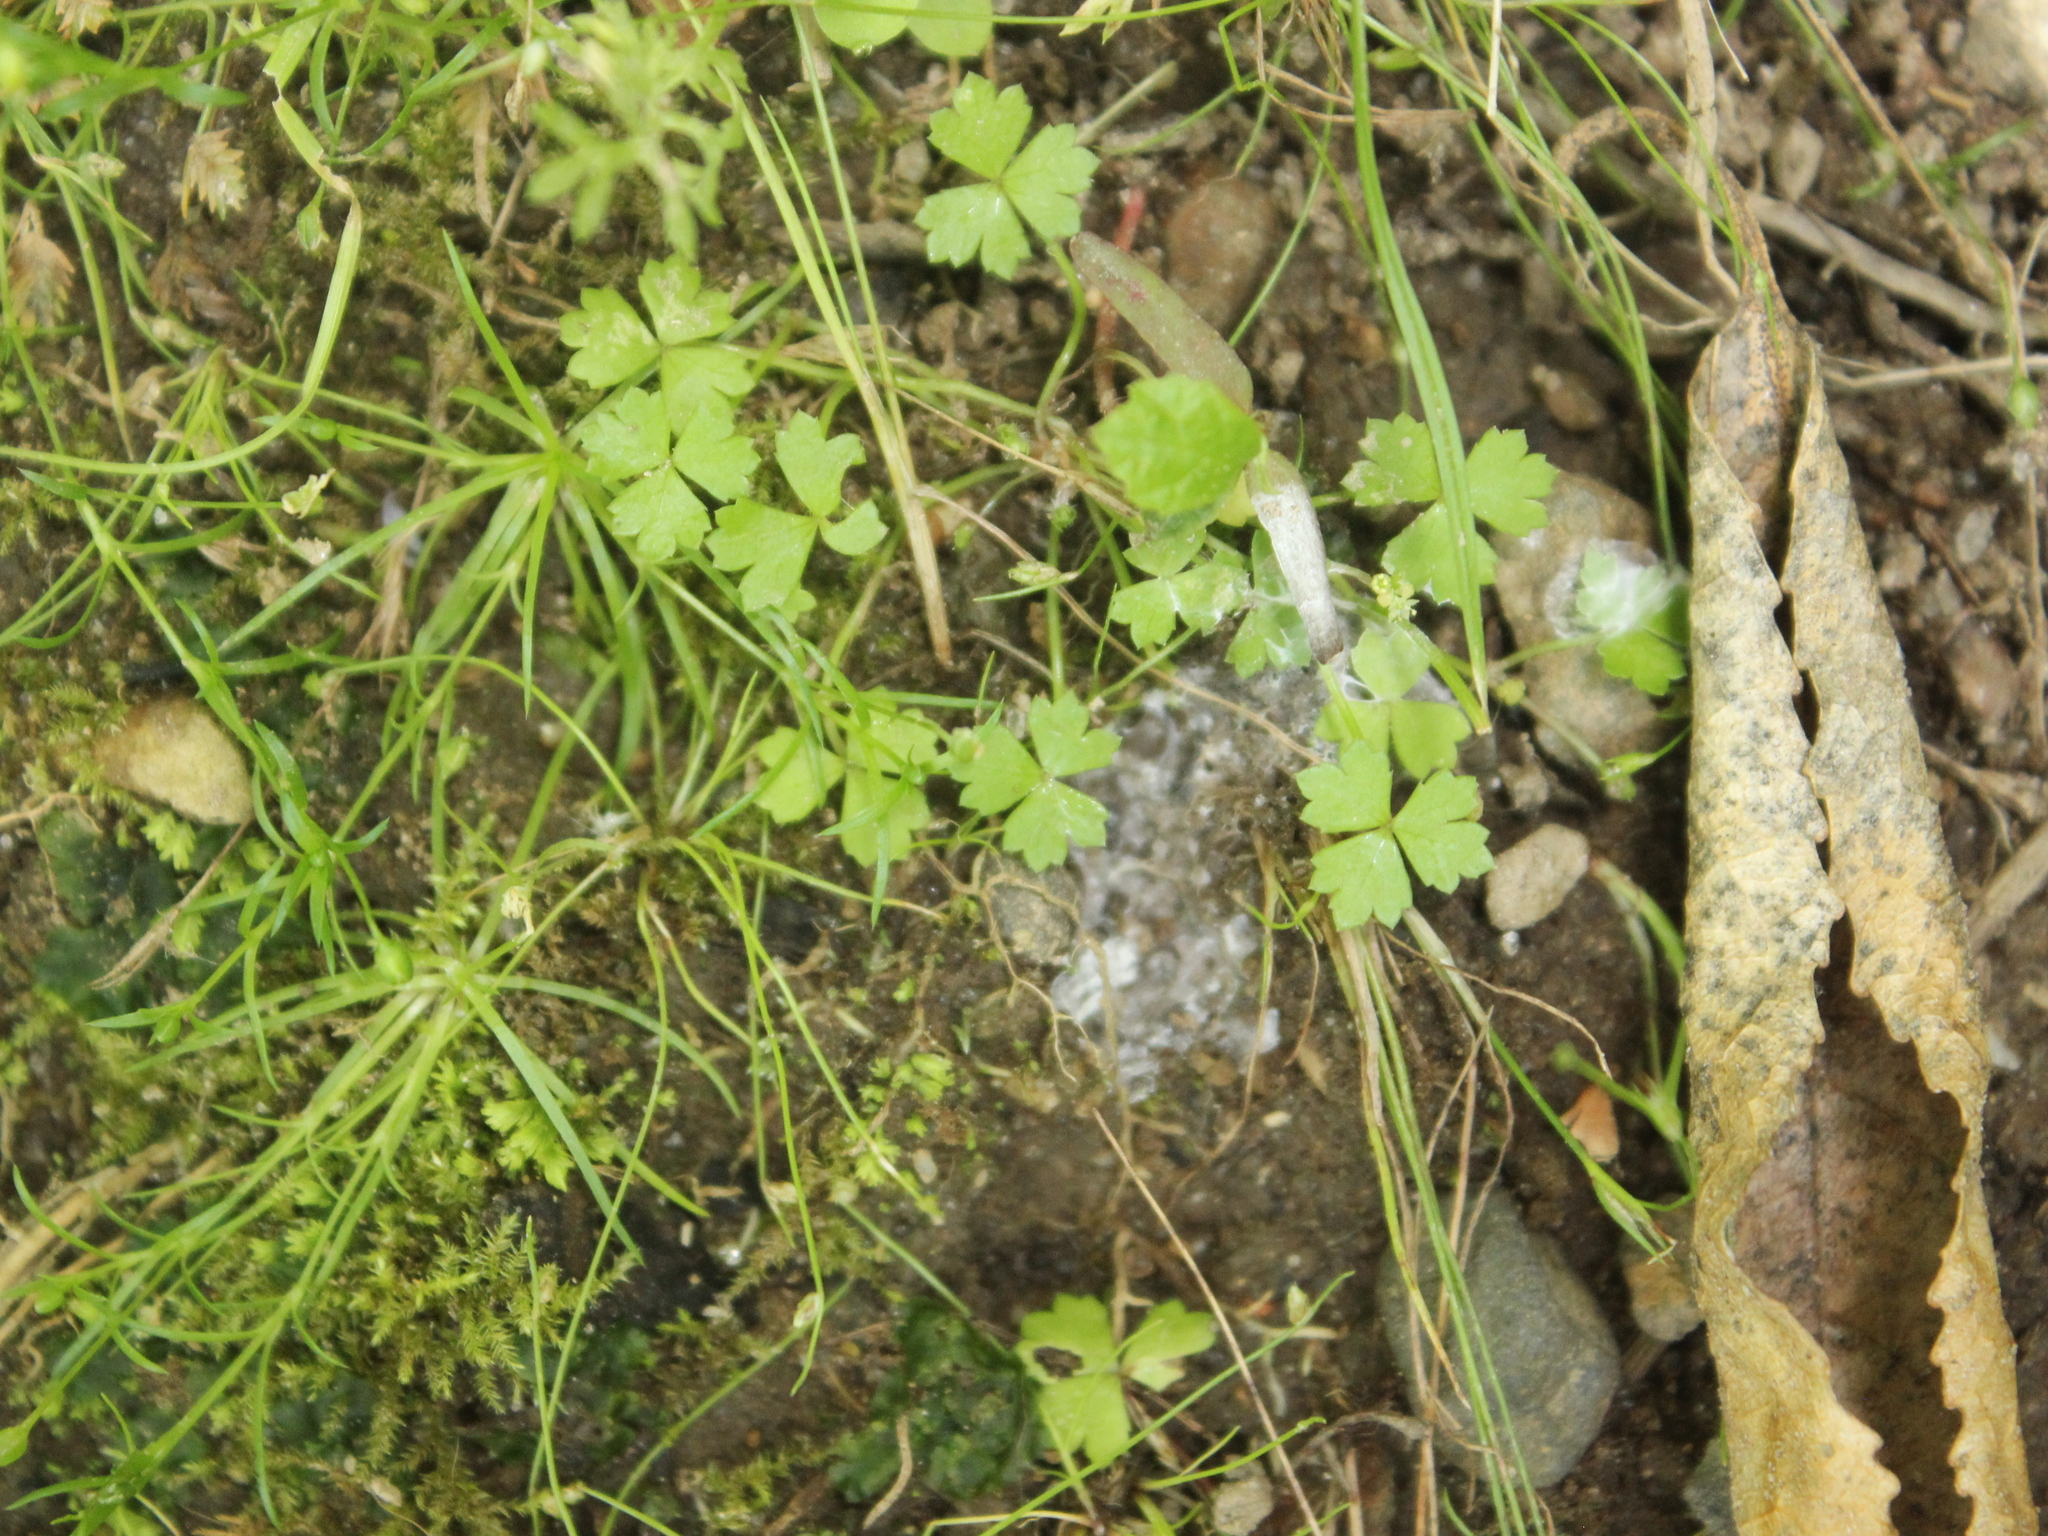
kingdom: Plantae
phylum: Tracheophyta
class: Magnoliopsida
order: Apiales
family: Araliaceae
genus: Hydrocotyle
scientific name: Hydrocotyle tripartita
